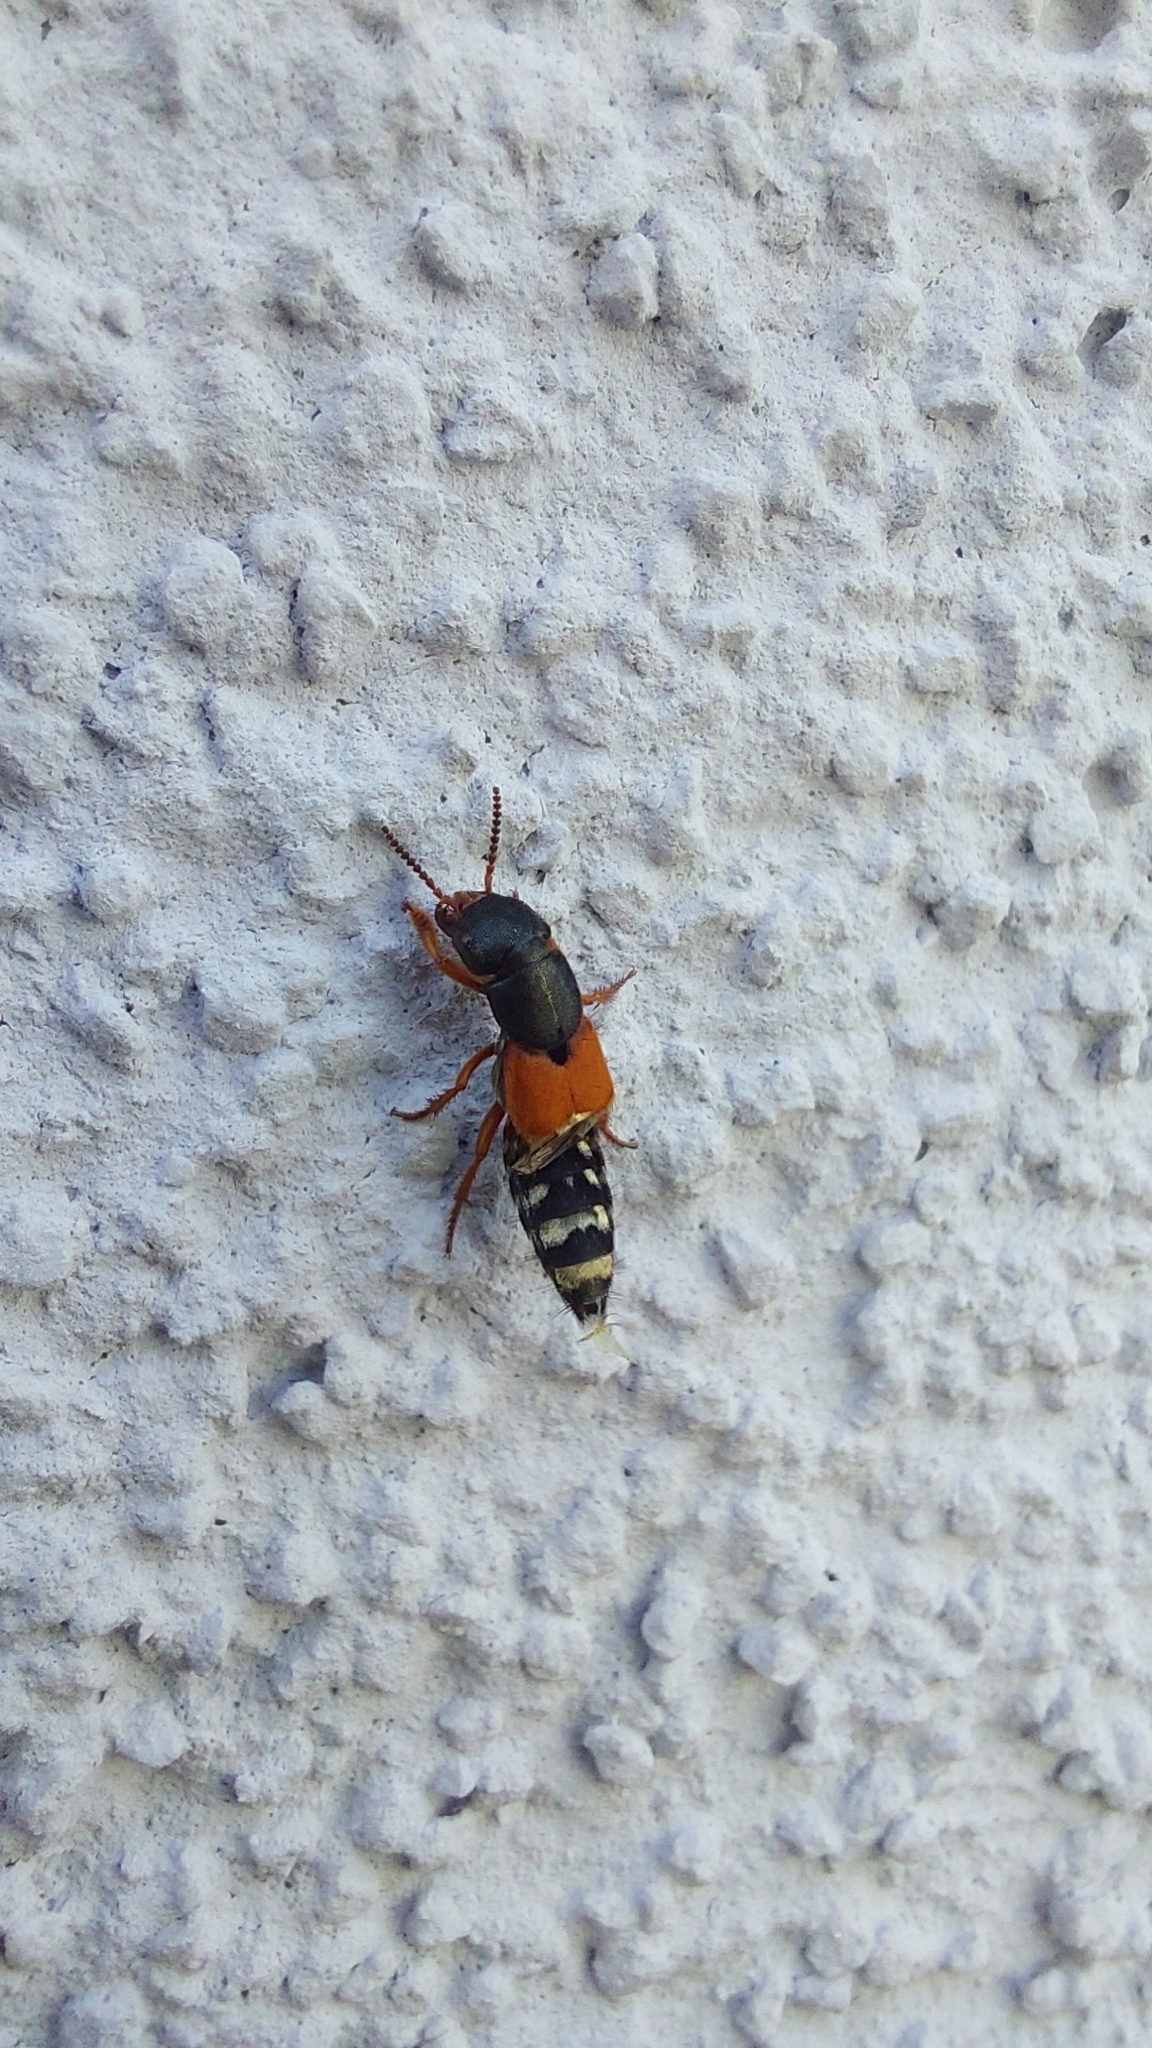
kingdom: Animalia
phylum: Arthropoda
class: Insecta
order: Coleoptera
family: Staphylinidae
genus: Platydracus
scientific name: Platydracus stercorarius
